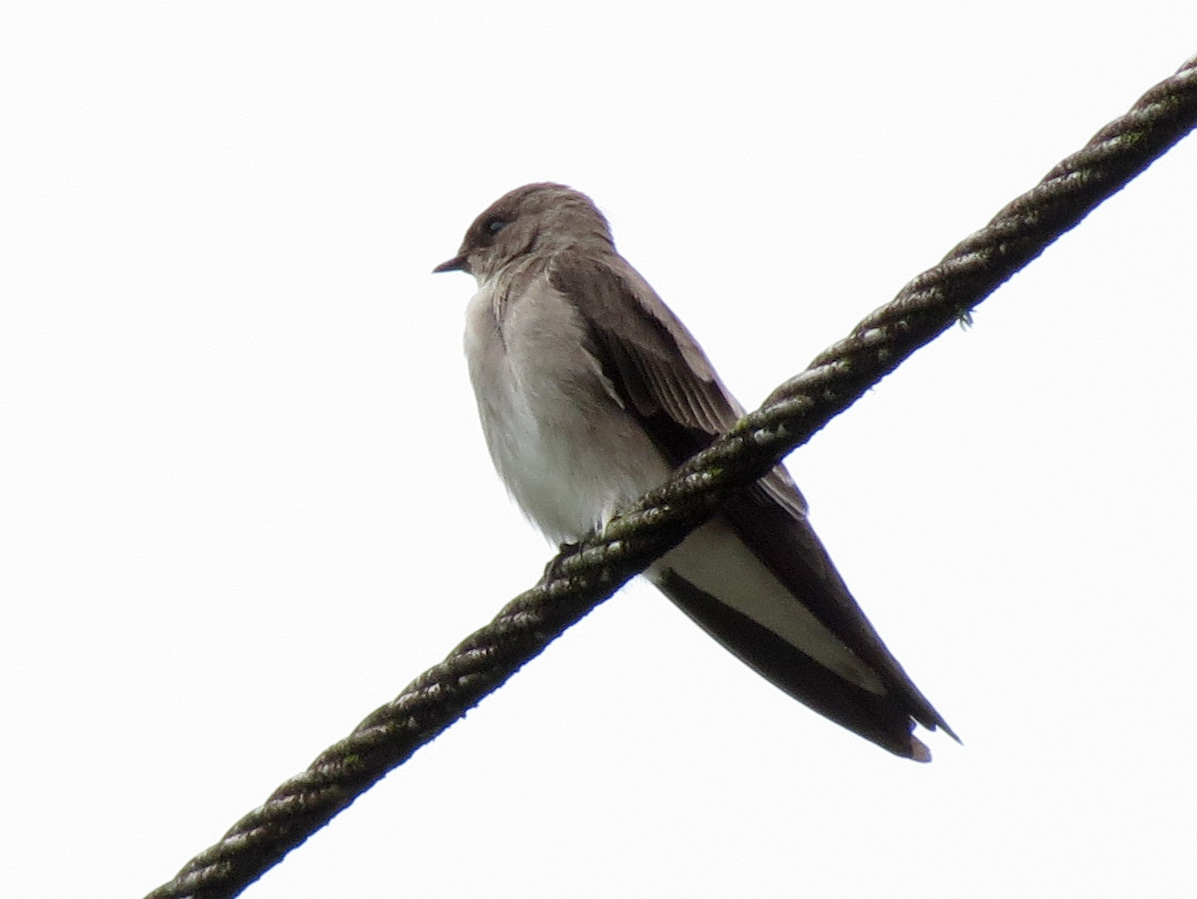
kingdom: Animalia
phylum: Chordata
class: Aves
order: Passeriformes
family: Hirundinidae
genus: Stelgidopteryx
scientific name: Stelgidopteryx serripennis
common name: Northern rough-winged swallow
